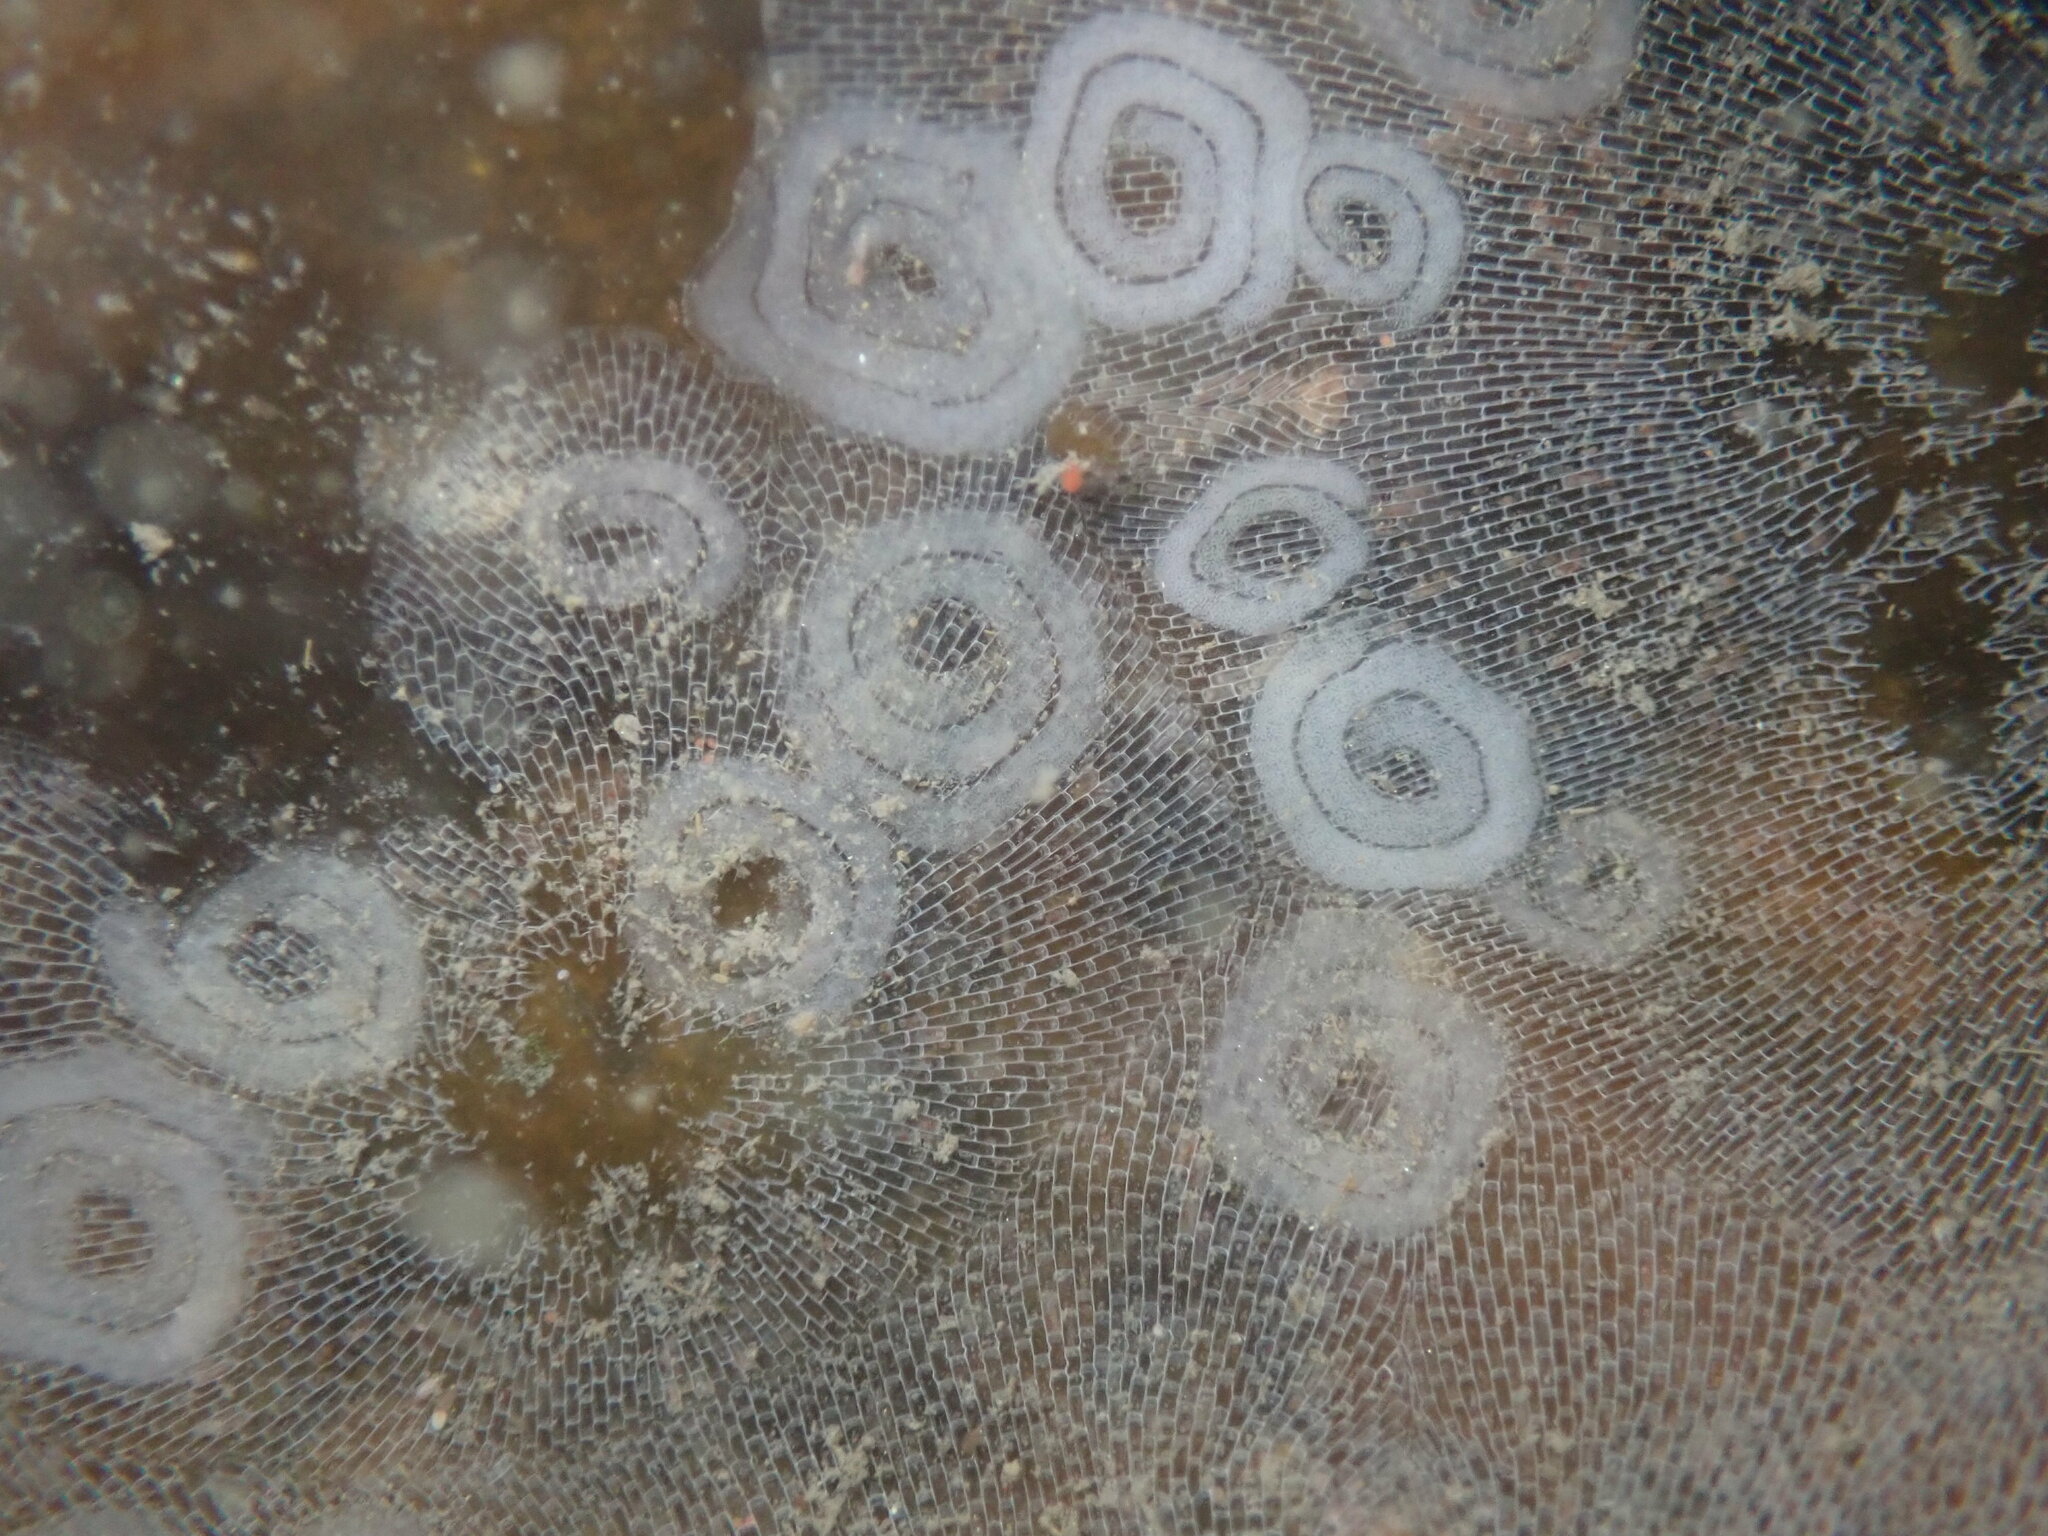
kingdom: Animalia
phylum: Mollusca
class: Gastropoda
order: Nudibranchia
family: Corambidae
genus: Corambe
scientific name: Corambe pacifica
